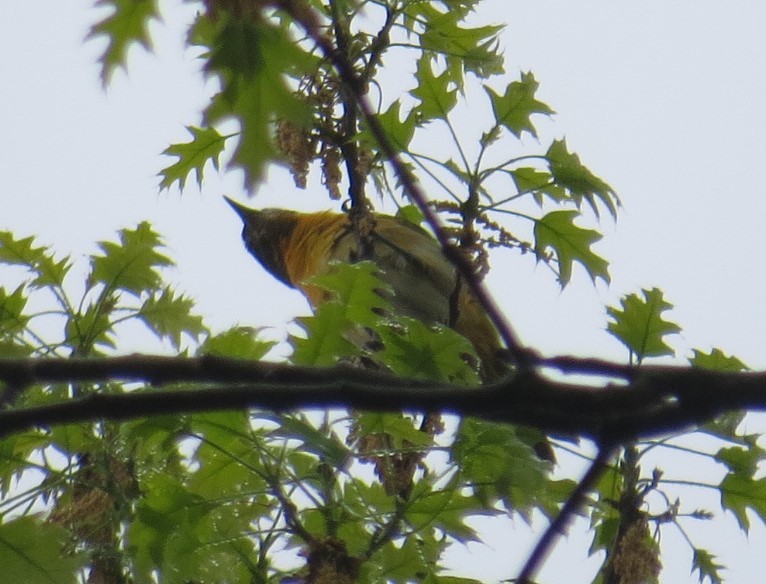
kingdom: Animalia
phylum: Chordata
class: Aves
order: Passeriformes
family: Turdidae
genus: Turdus
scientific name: Turdus migratorius
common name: American robin
